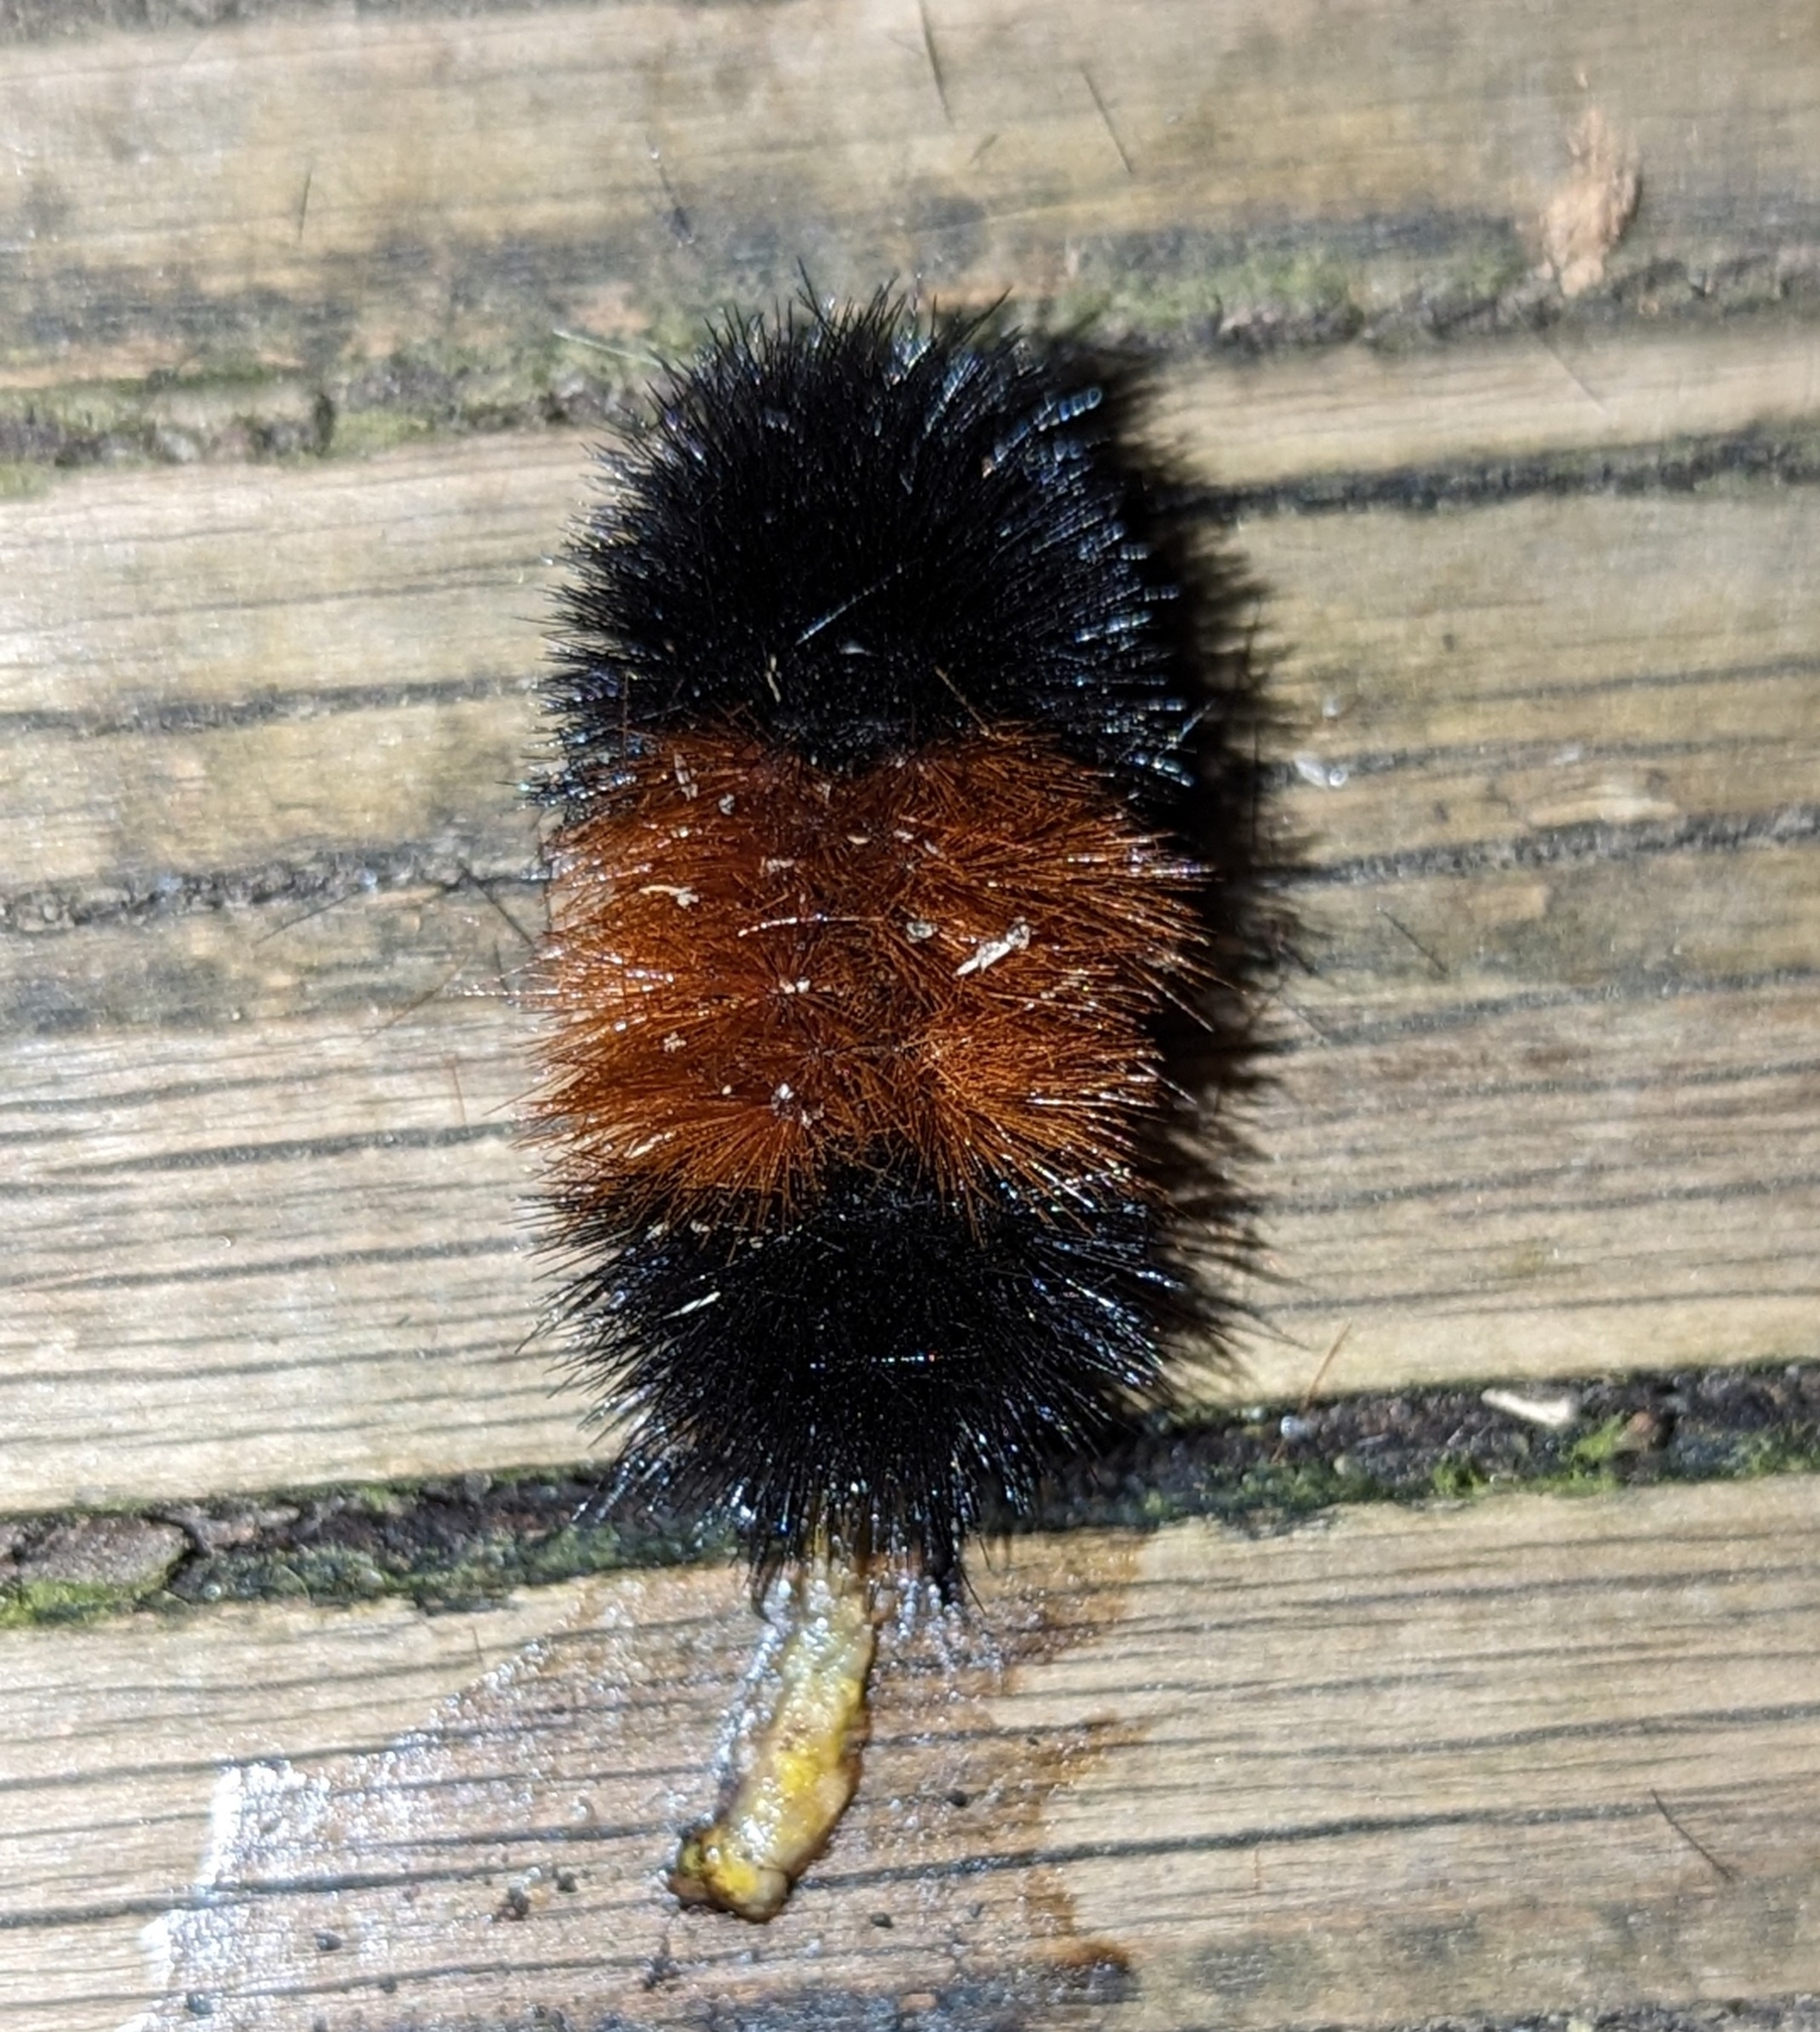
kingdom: Animalia
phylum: Arthropoda
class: Insecta
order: Lepidoptera
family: Erebidae
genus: Pyrrharctia
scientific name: Pyrrharctia isabella
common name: Isabella tiger moth
